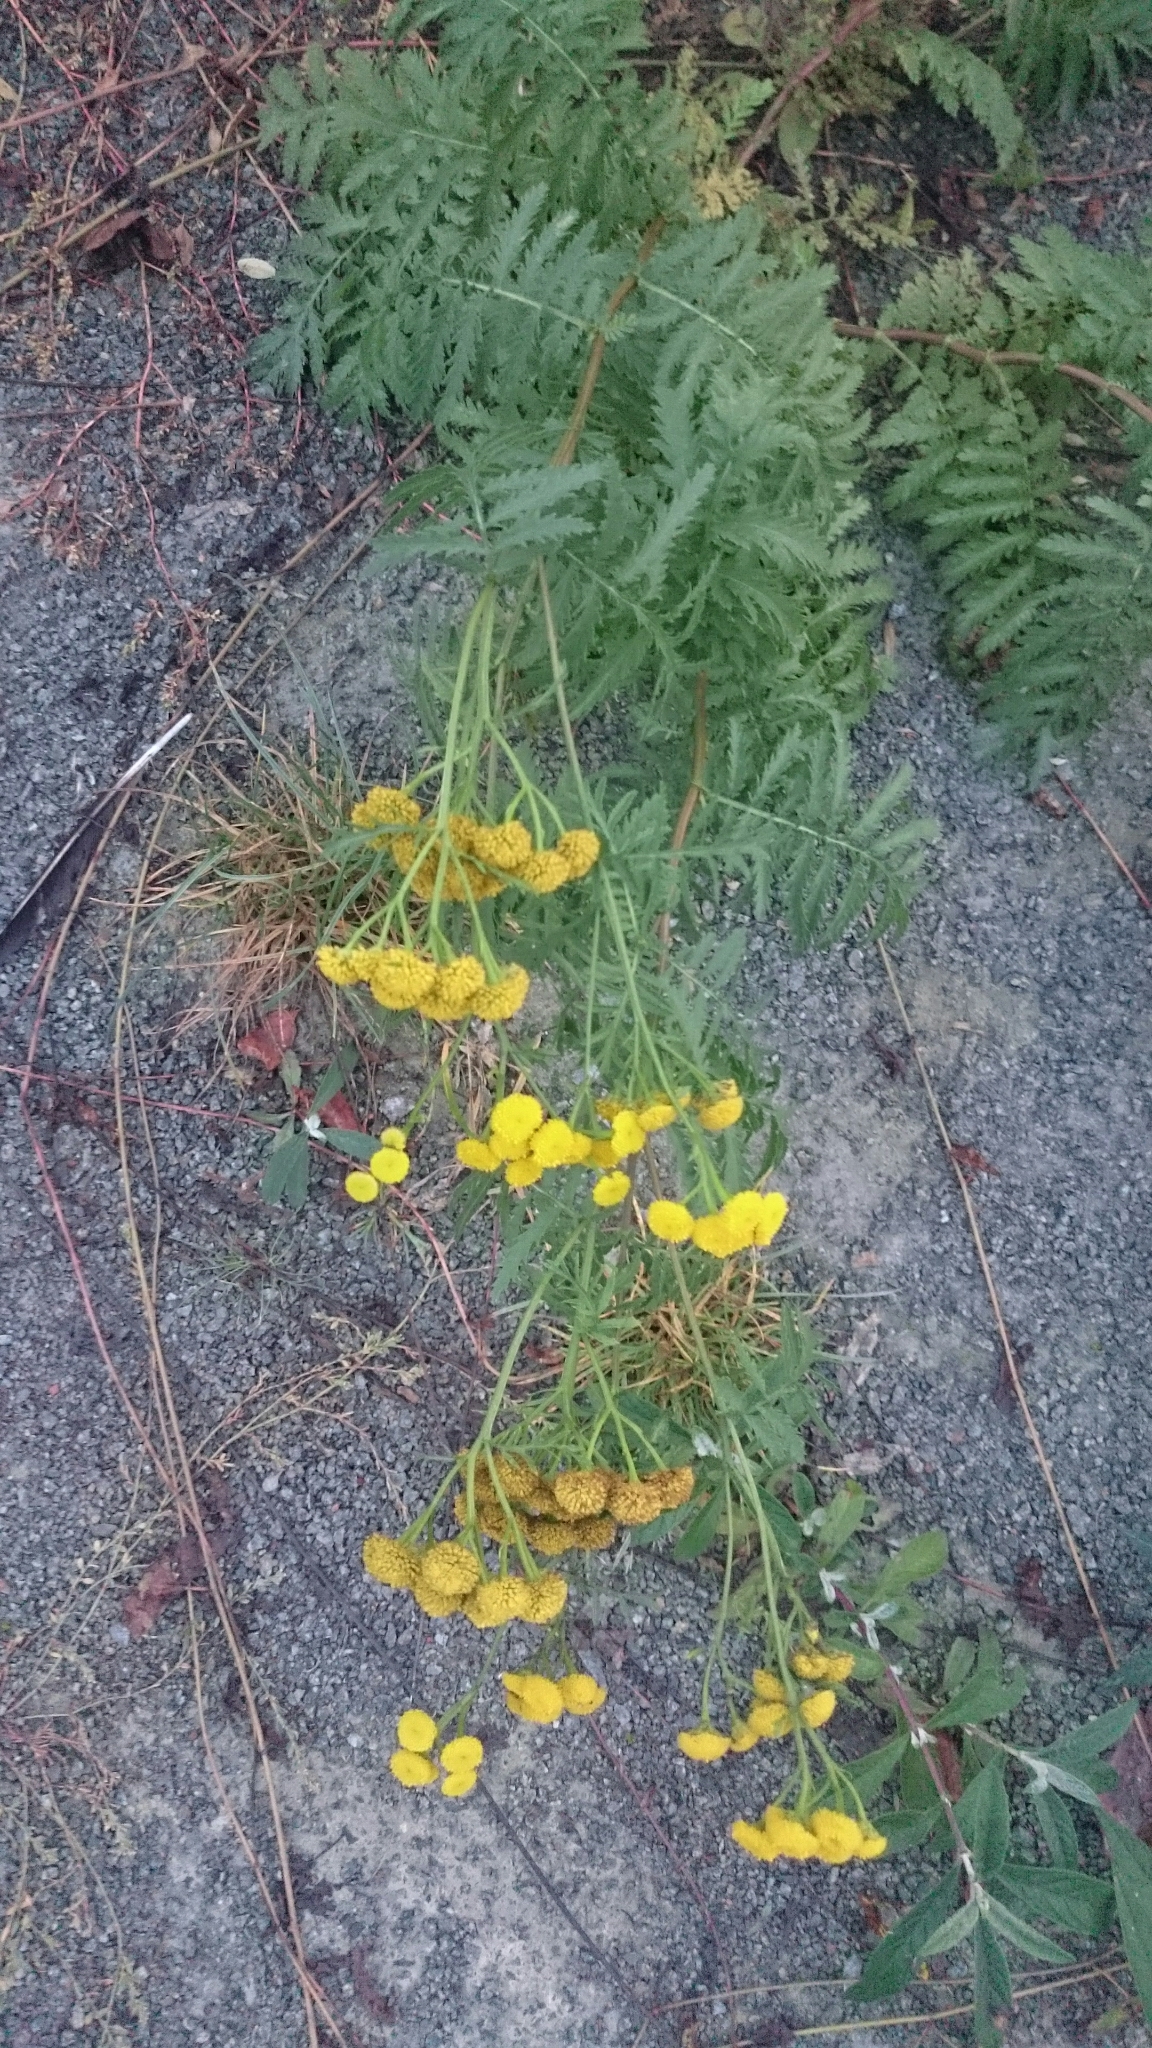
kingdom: Plantae
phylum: Tracheophyta
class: Magnoliopsida
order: Asterales
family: Asteraceae
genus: Tanacetum
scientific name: Tanacetum vulgare
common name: Common tansy
